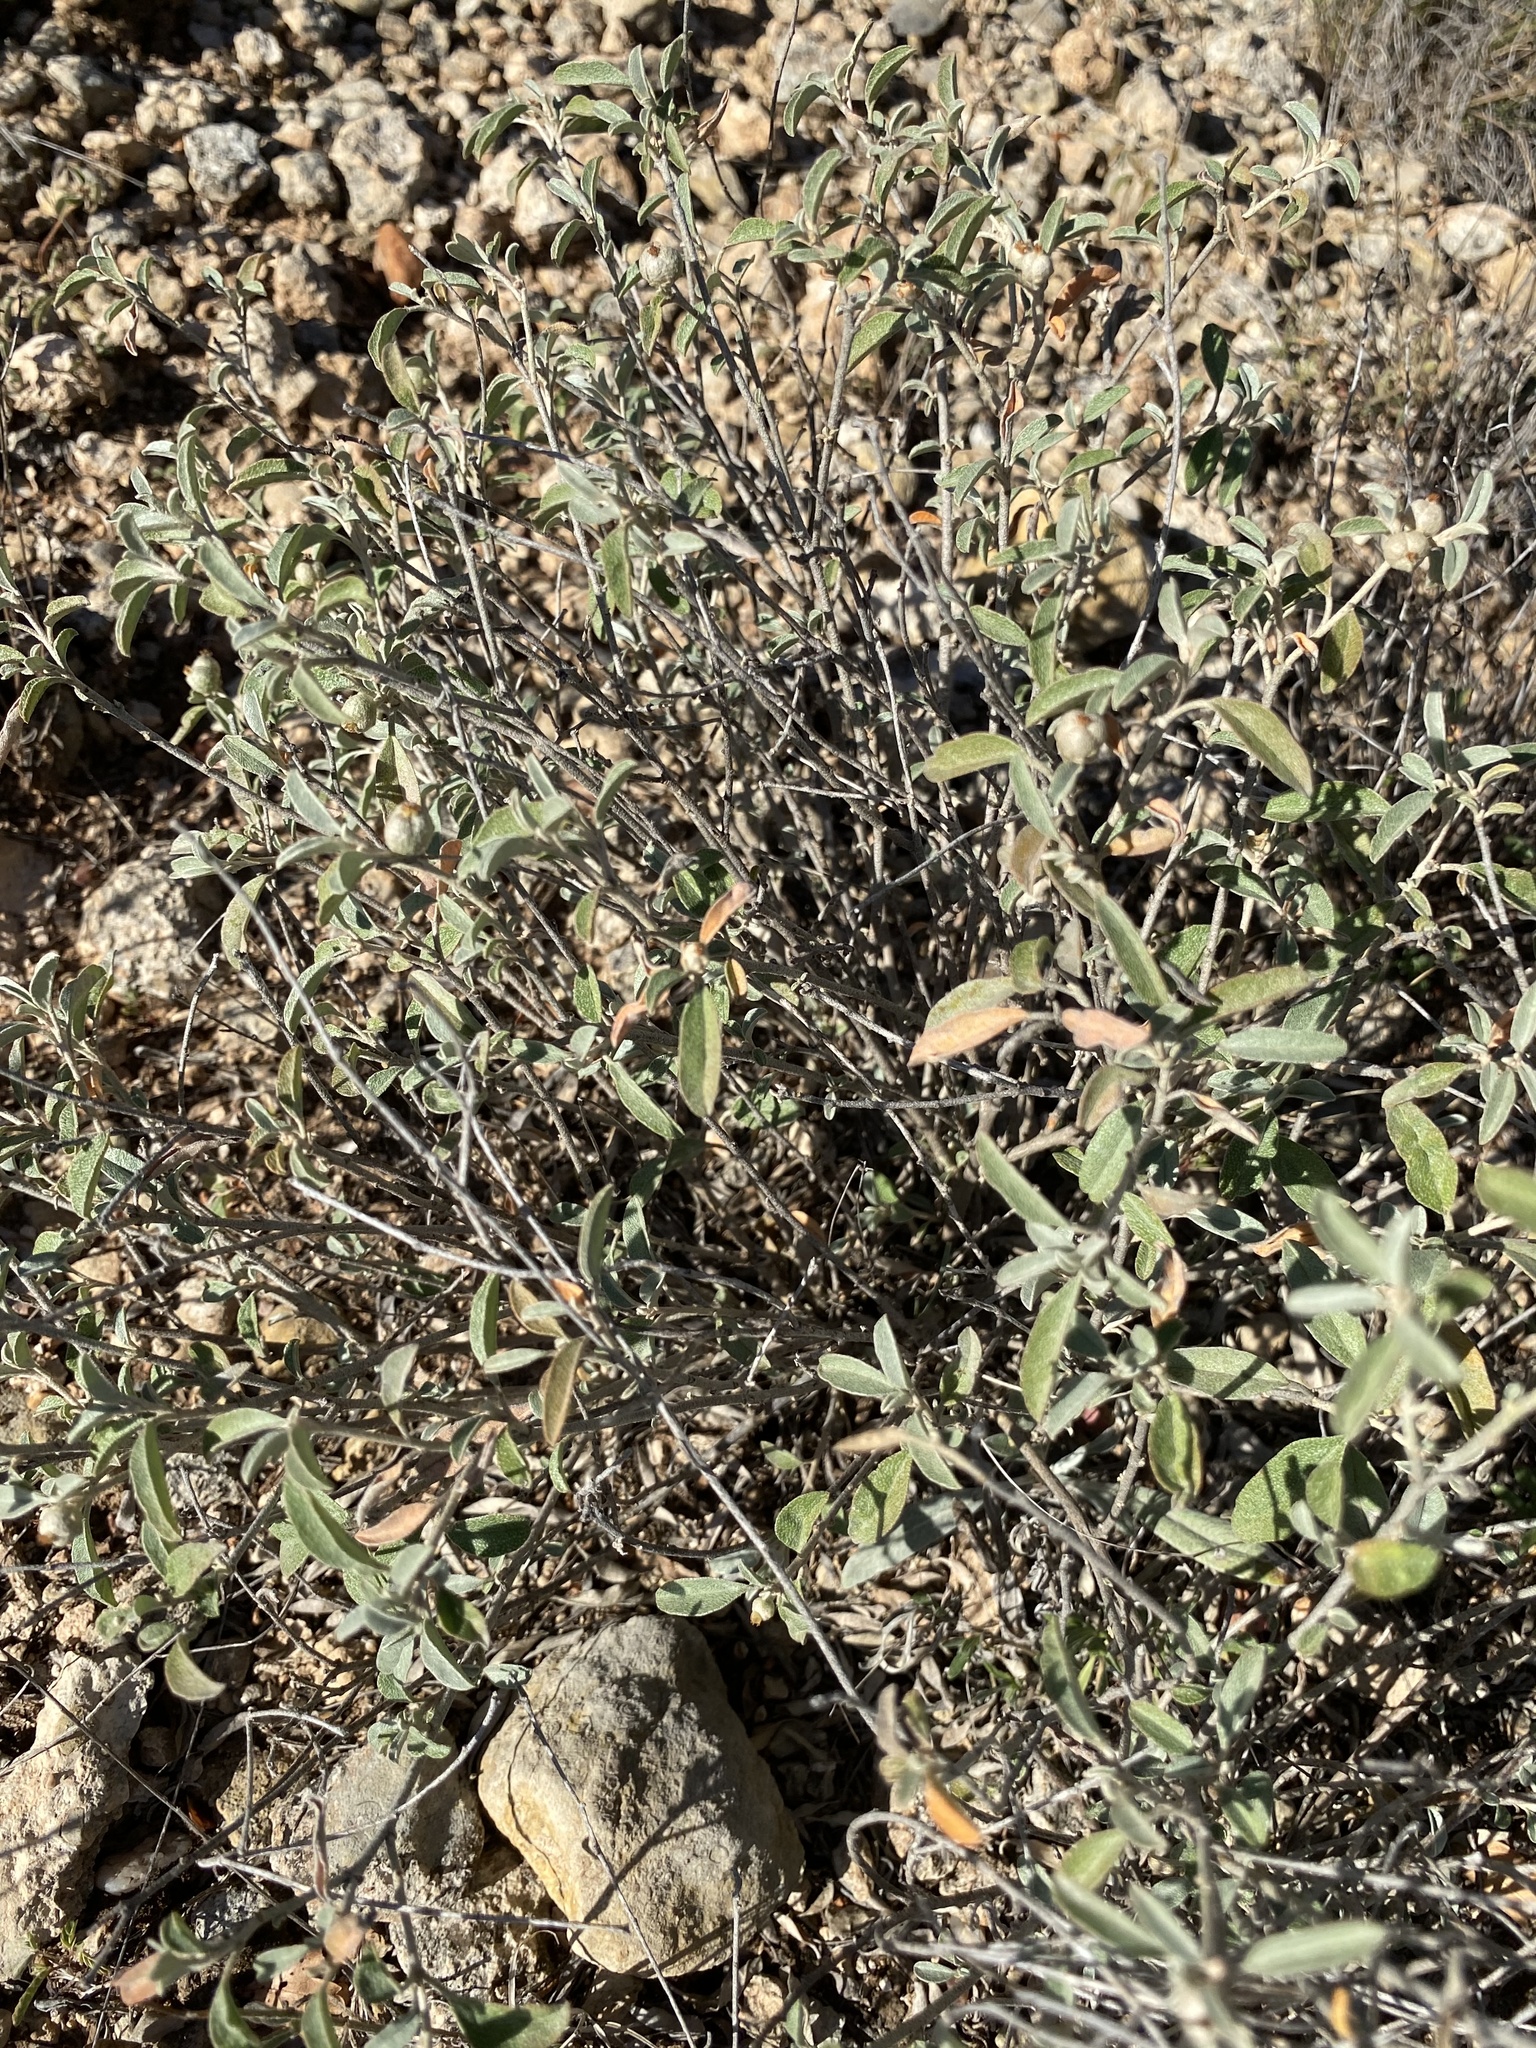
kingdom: Plantae
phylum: Tracheophyta
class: Magnoliopsida
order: Malpighiales
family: Euphorbiaceae
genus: Croton
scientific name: Croton dioicus
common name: Grassland croton
